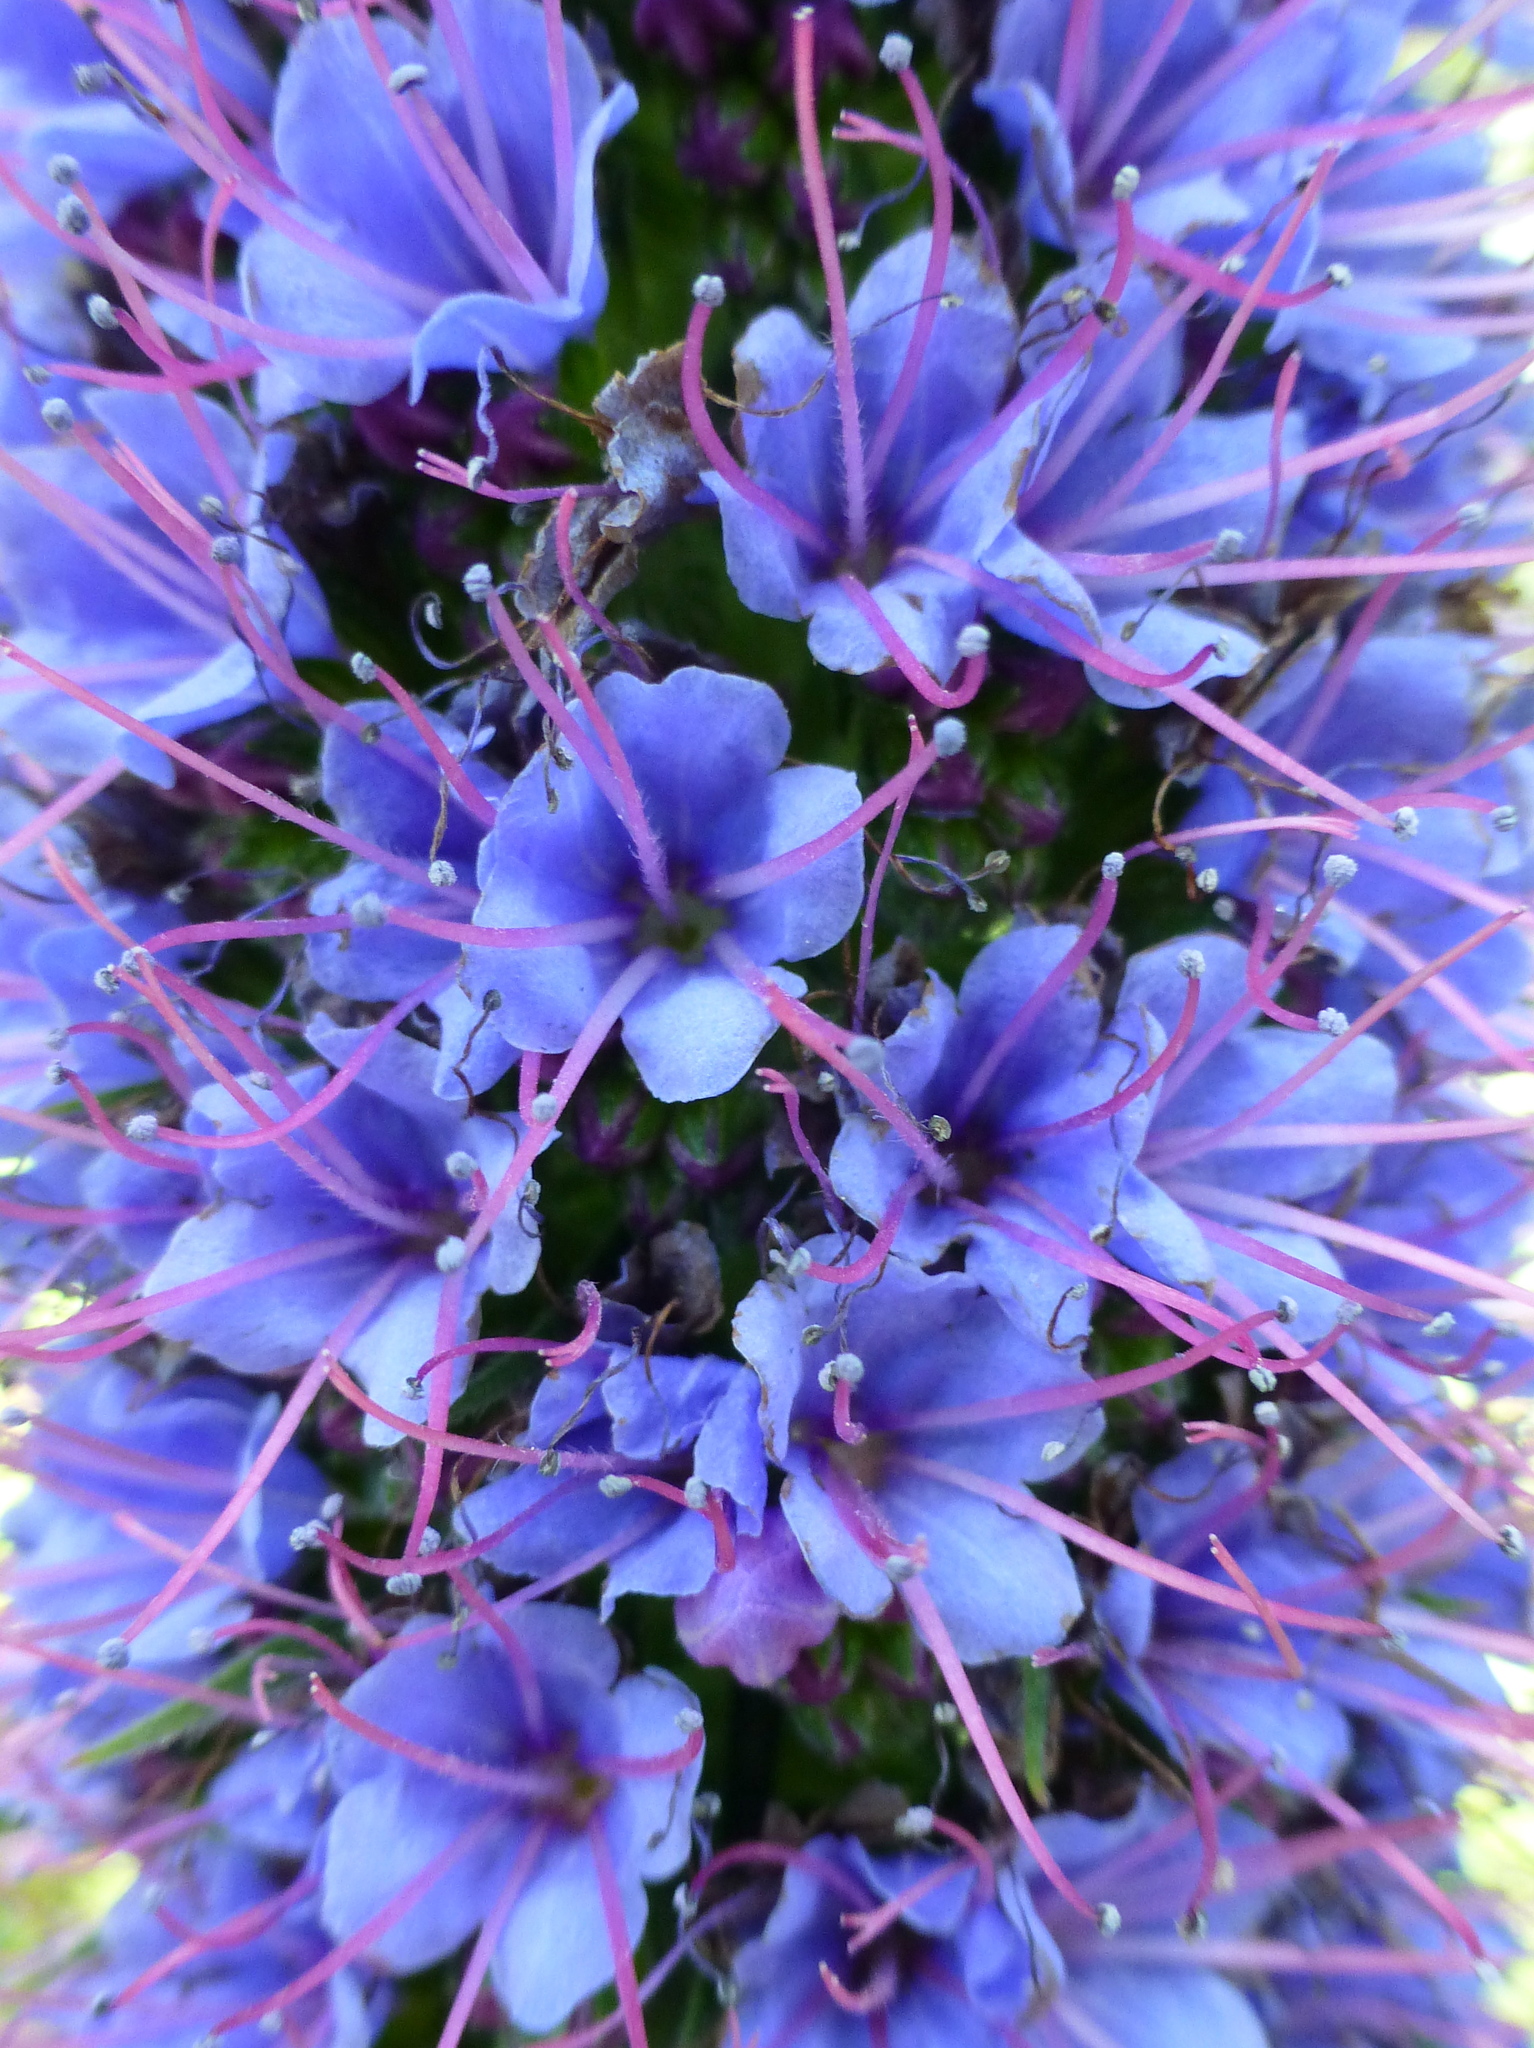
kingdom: Plantae
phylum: Tracheophyta
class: Magnoliopsida
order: Boraginales
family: Boraginaceae
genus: Echium
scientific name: Echium candicans
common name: Pride of madeira
